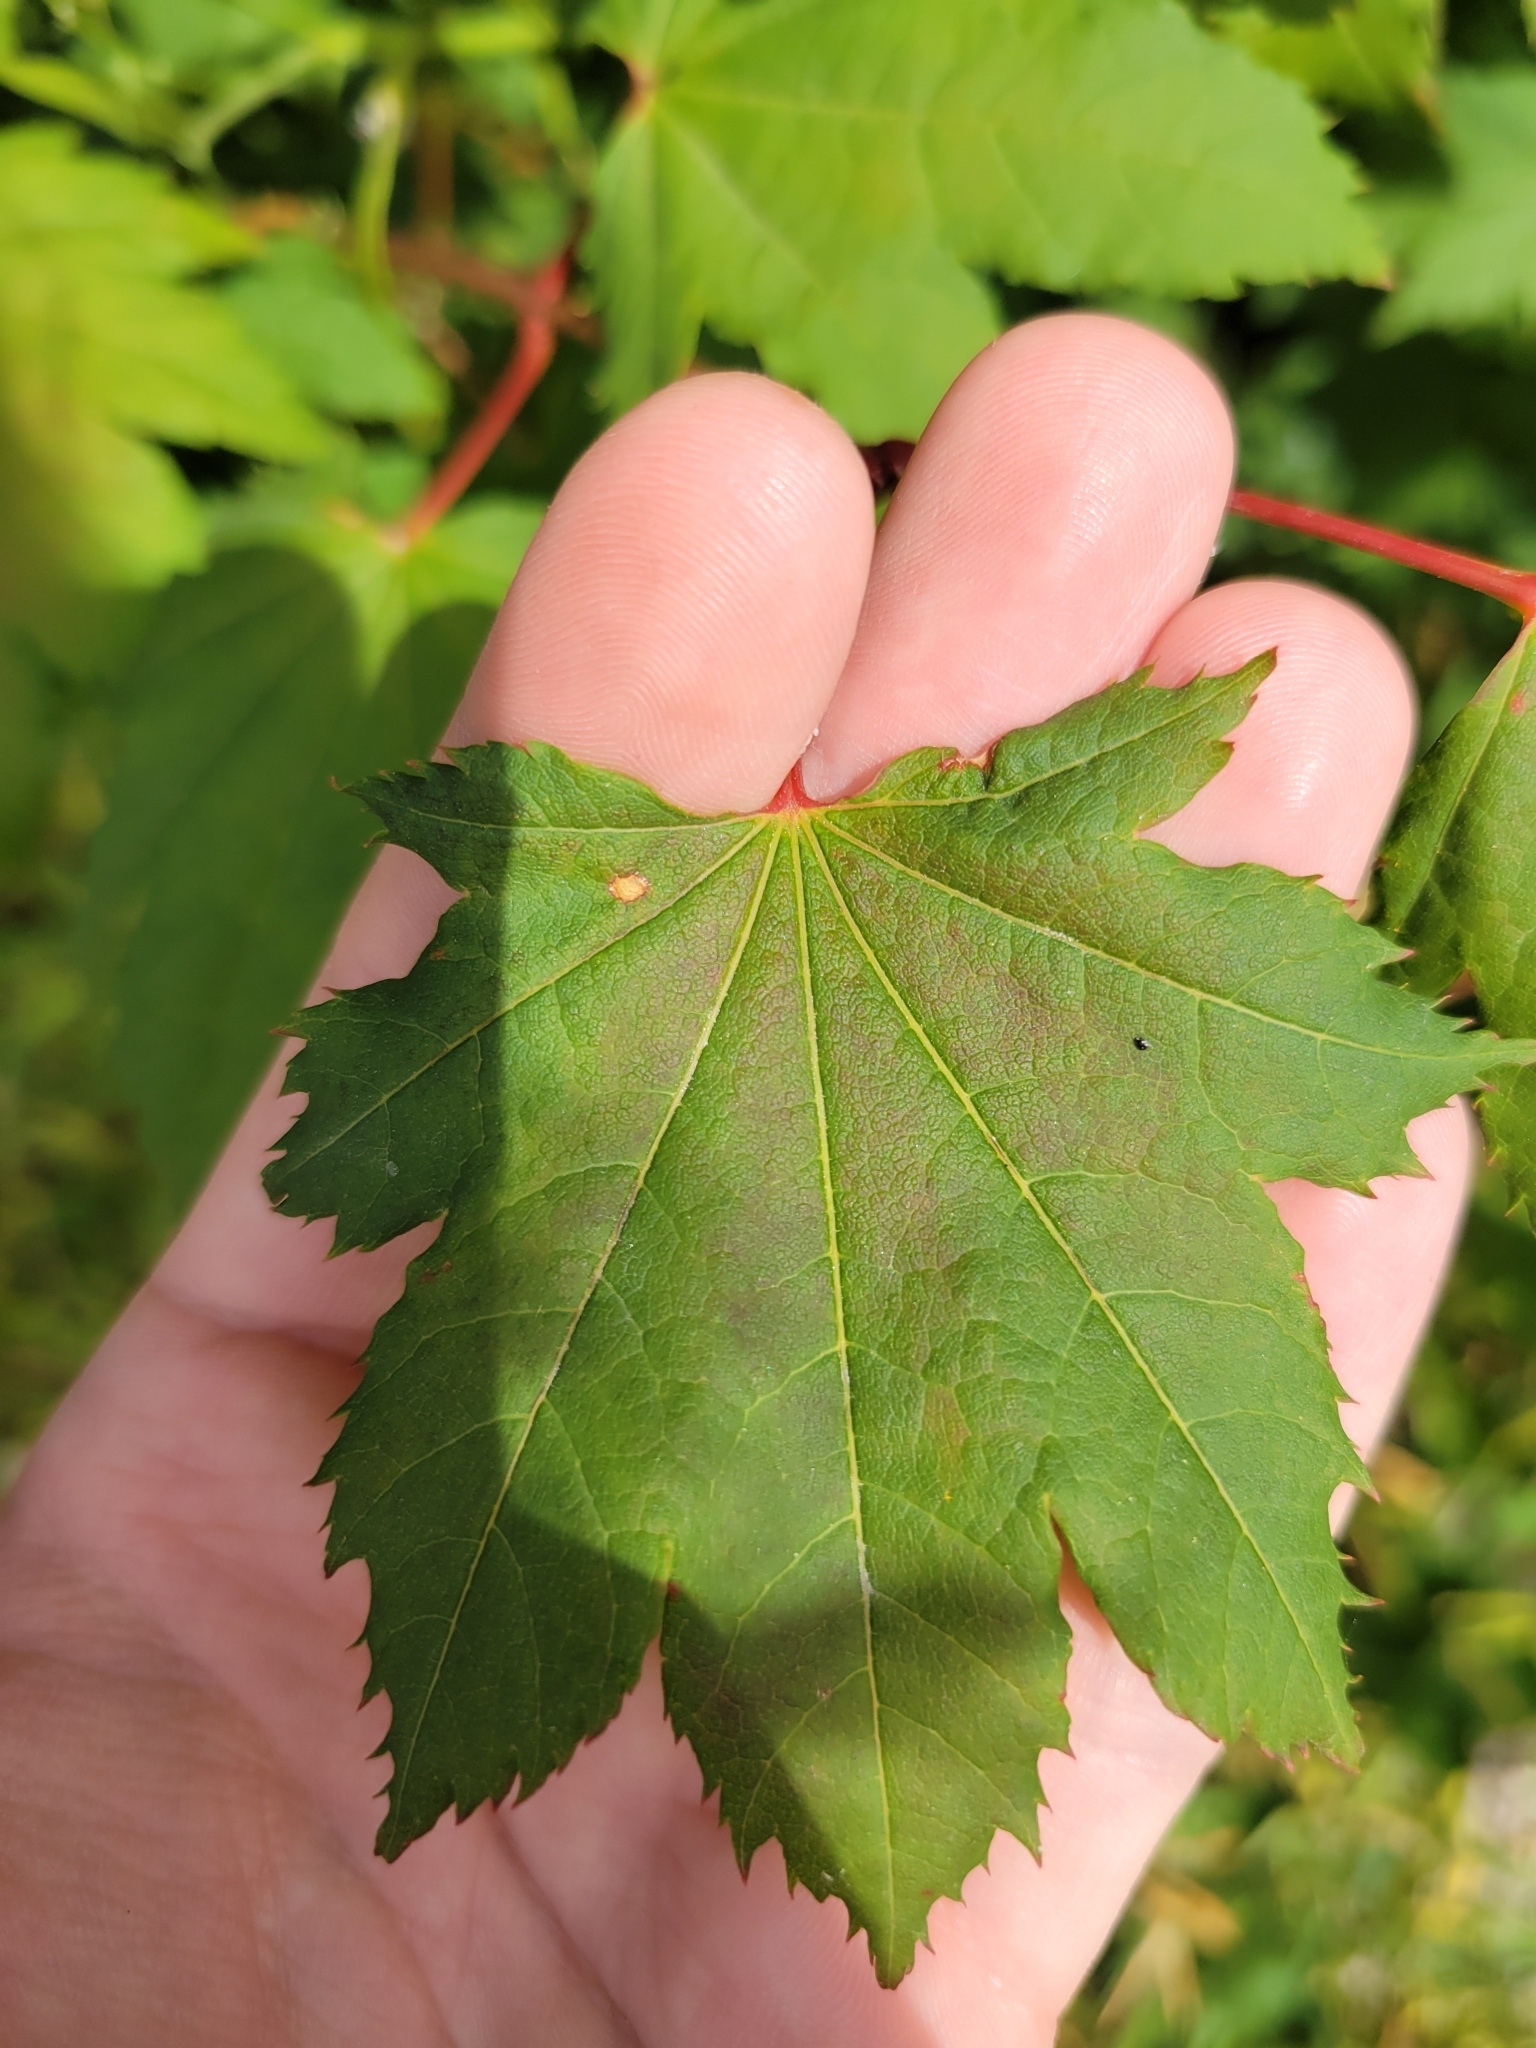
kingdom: Plantae
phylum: Tracheophyta
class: Magnoliopsida
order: Sapindales
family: Sapindaceae
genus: Acer
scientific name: Acer circinatum
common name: Vine maple
